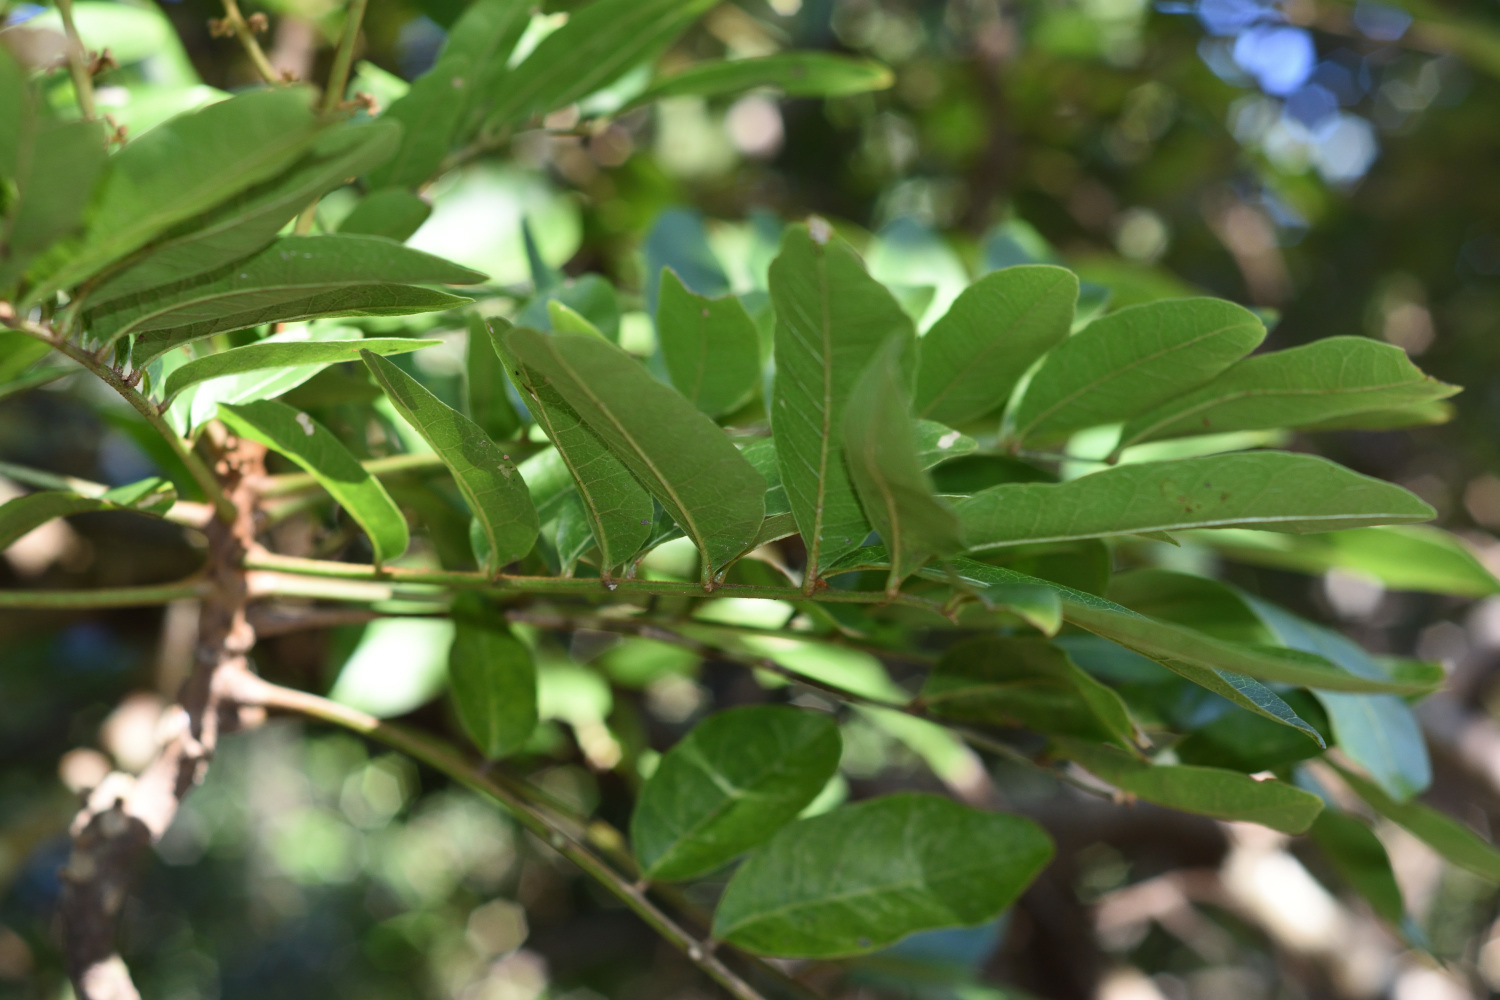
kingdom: Plantae
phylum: Tracheophyta
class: Magnoliopsida
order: Sapindales
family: Sapindaceae
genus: Deinbollia
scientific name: Deinbollia oblongifolia
